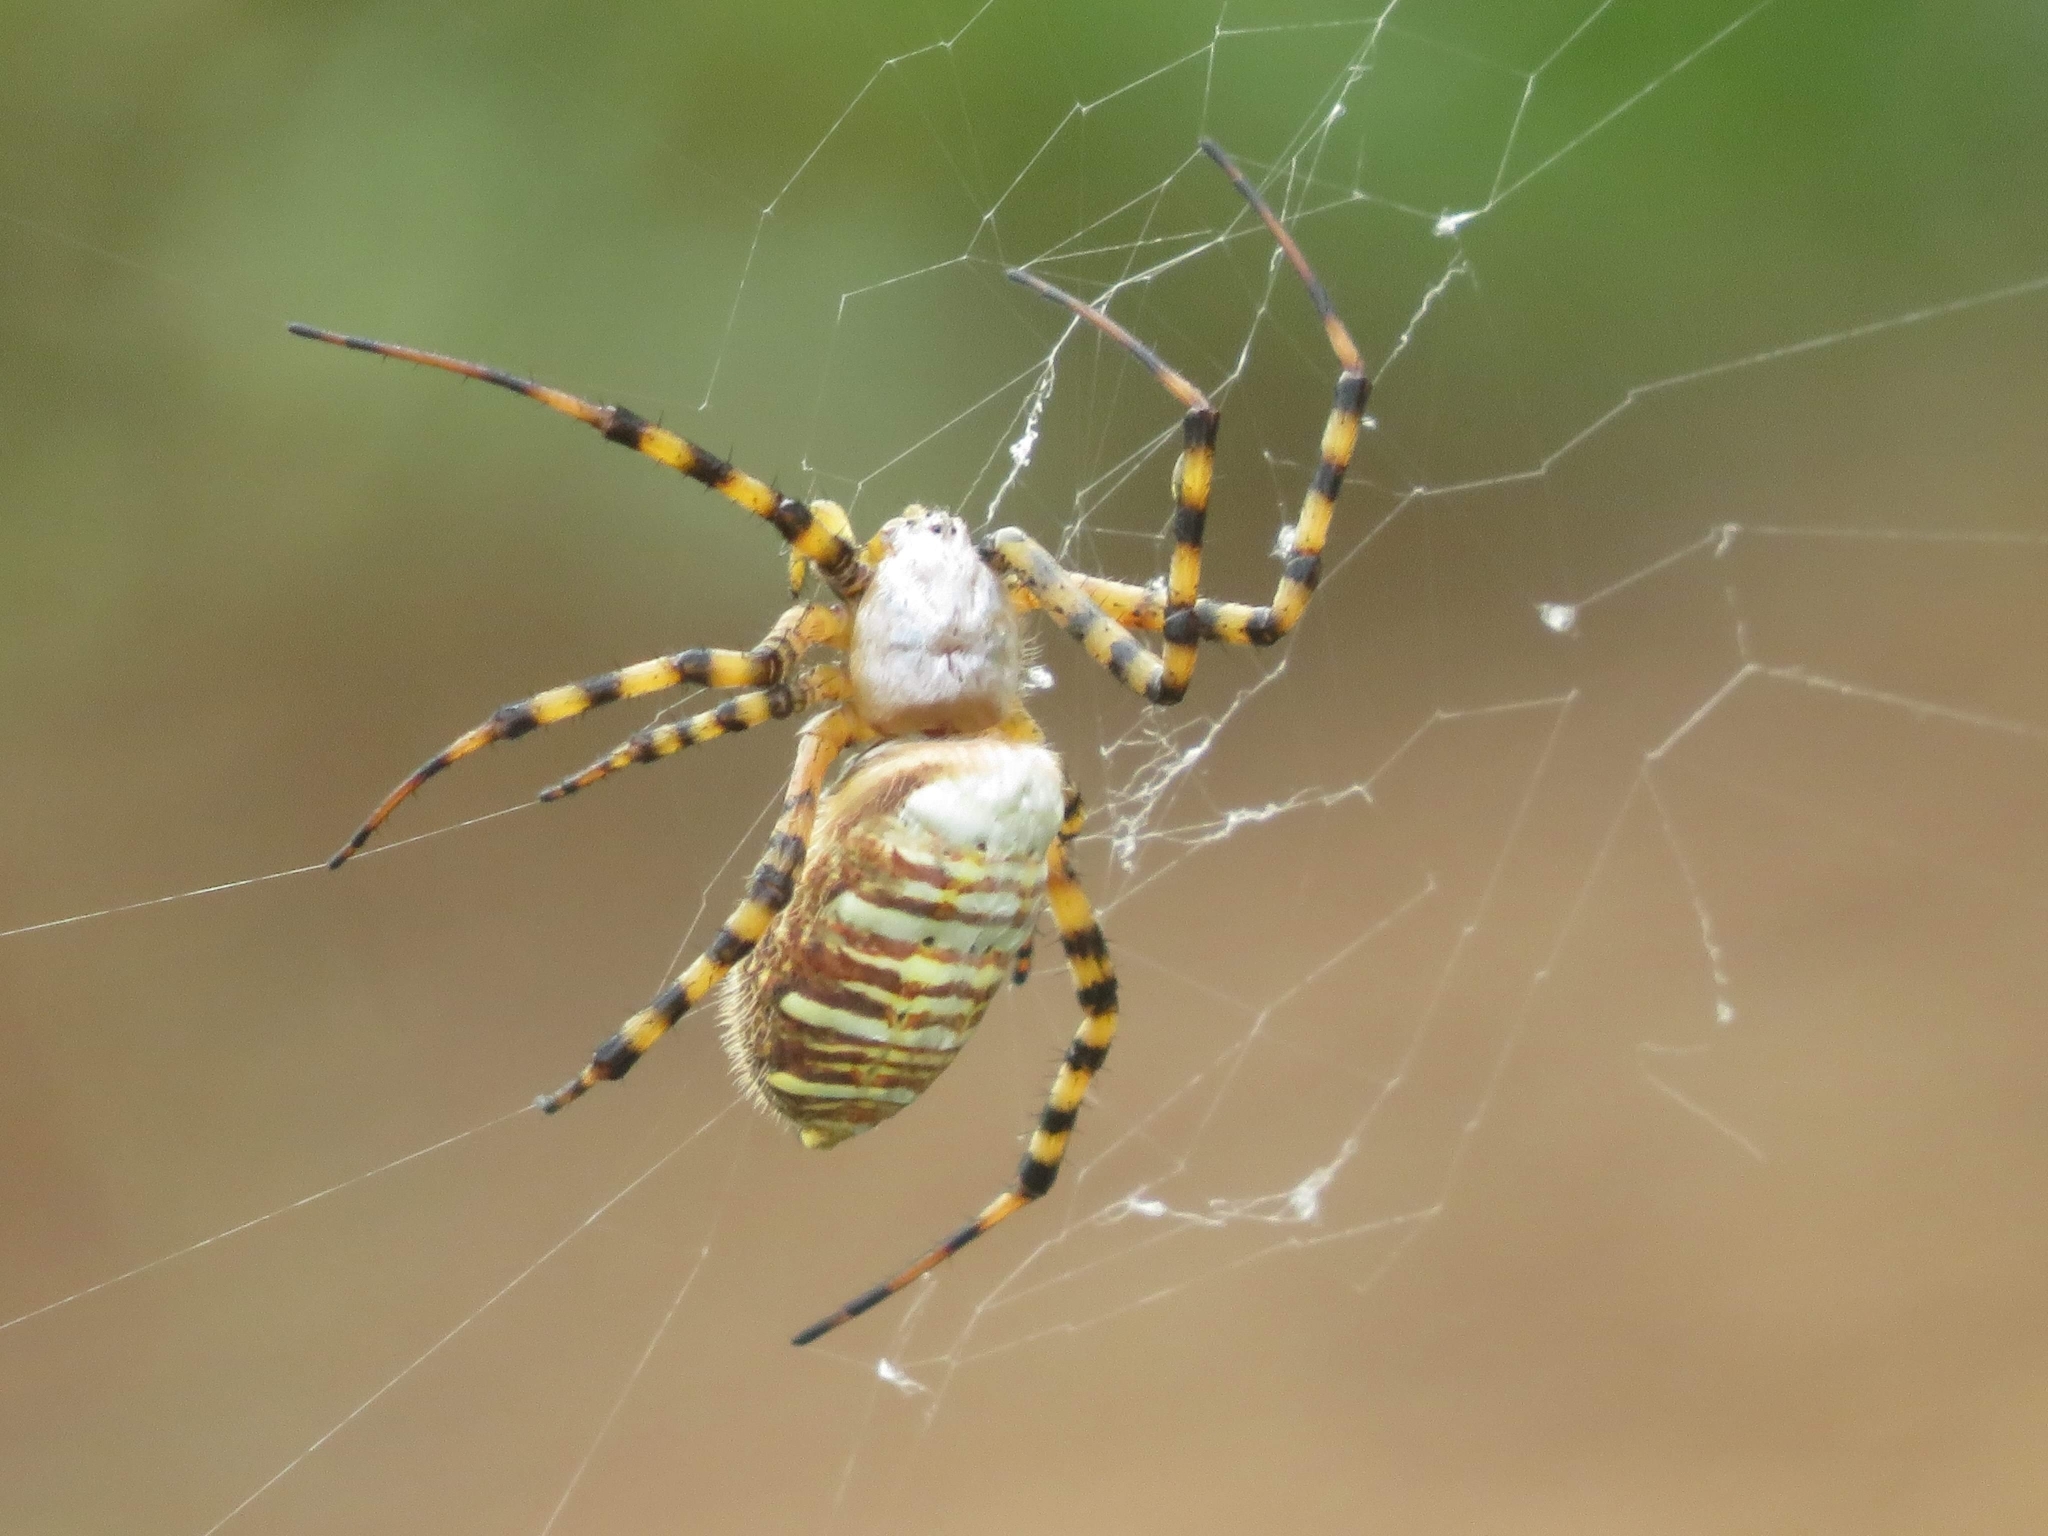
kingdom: Animalia
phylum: Arthropoda
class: Arachnida
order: Araneae
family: Araneidae
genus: Argiope
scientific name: Argiope trifasciata
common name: Banded garden spider
